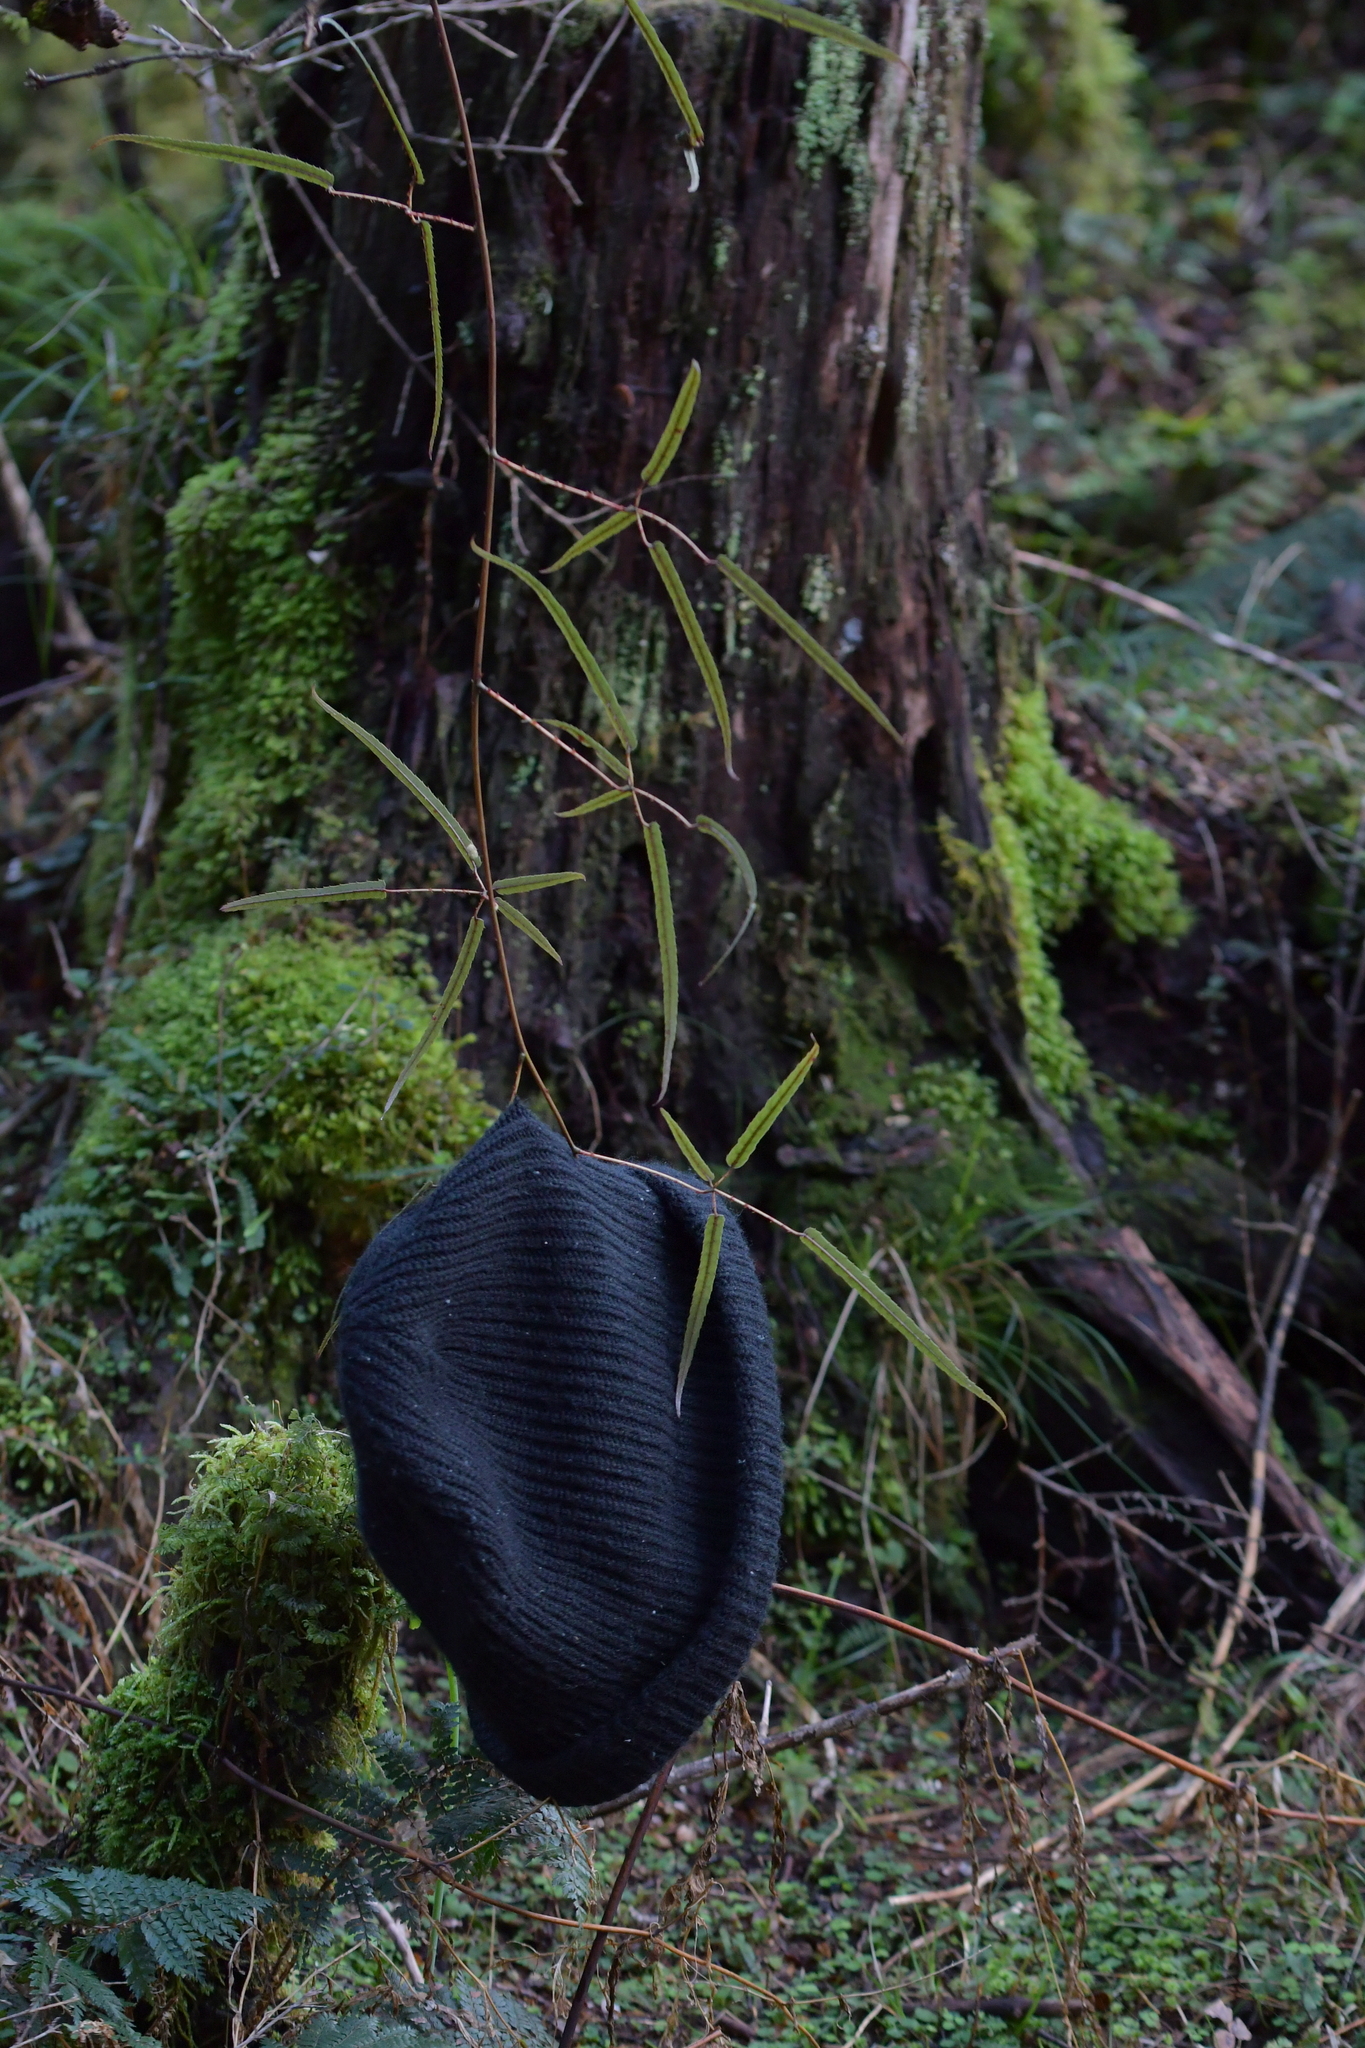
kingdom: Plantae
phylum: Tracheophyta
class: Magnoliopsida
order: Rosales
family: Rosaceae
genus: Rubus
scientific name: Rubus schmidelioides
